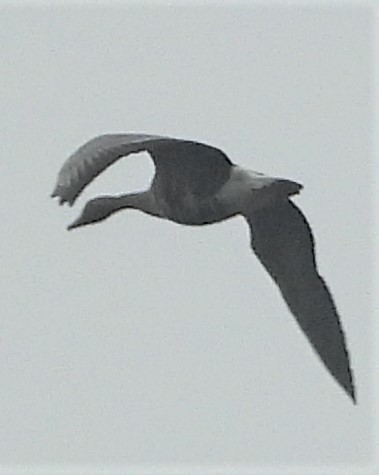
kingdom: Animalia
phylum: Chordata
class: Aves
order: Anseriformes
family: Anatidae
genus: Anser
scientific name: Anser albifrons
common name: Greater white-fronted goose
